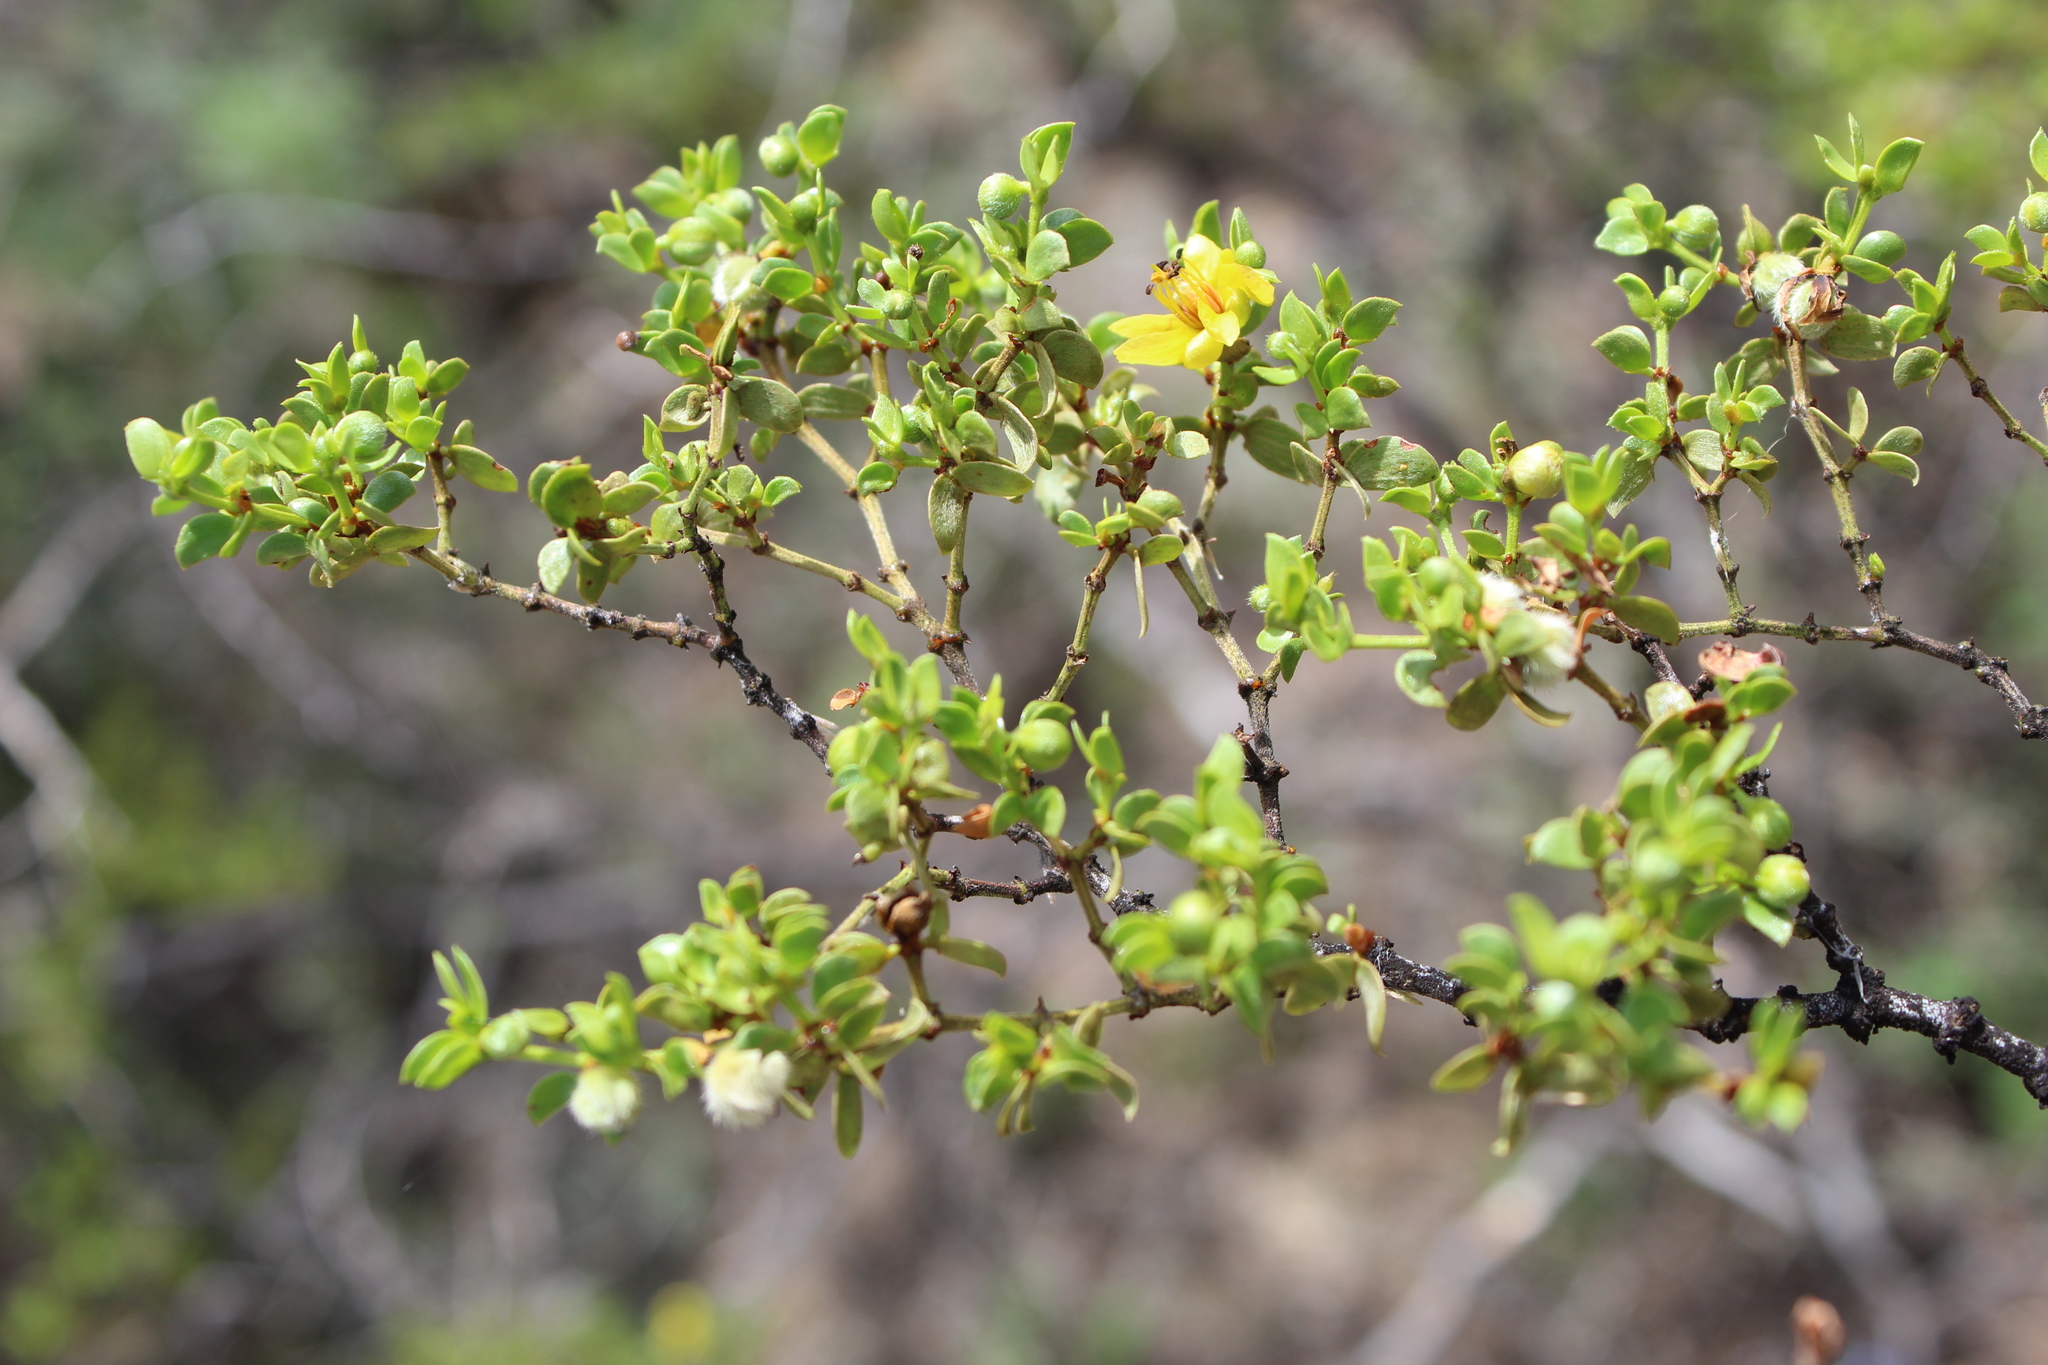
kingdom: Plantae
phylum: Tracheophyta
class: Magnoliopsida
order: Zygophyllales
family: Zygophyllaceae
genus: Larrea
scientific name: Larrea tridentata
